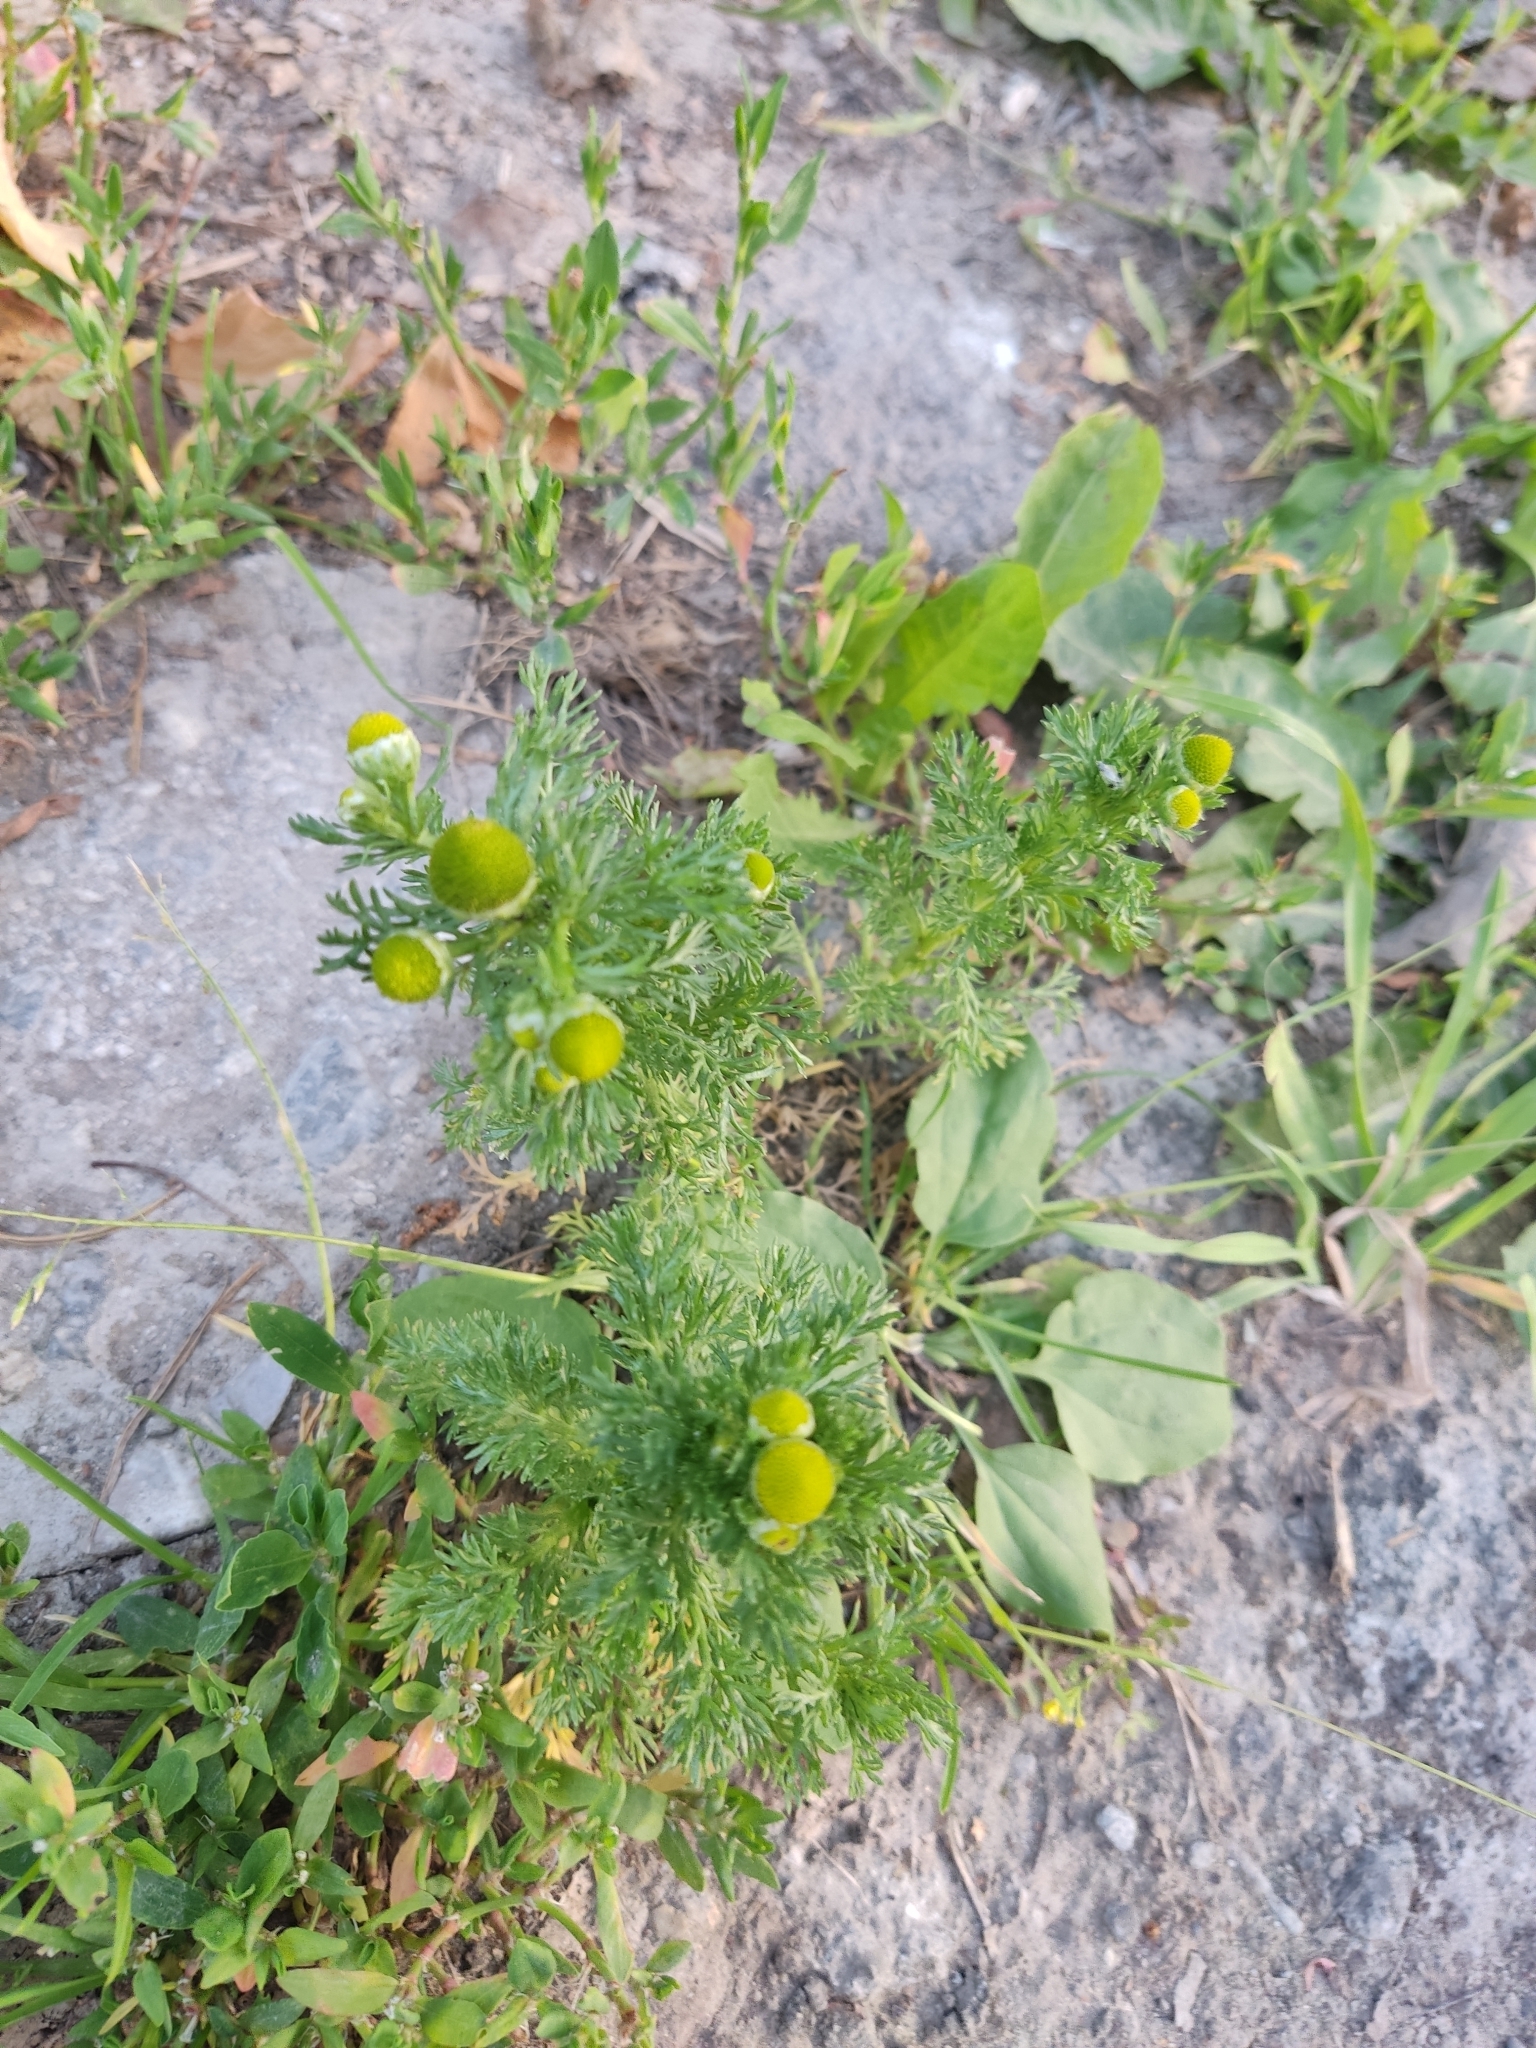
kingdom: Plantae
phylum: Tracheophyta
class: Magnoliopsida
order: Asterales
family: Asteraceae
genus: Matricaria
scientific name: Matricaria discoidea
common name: Disc mayweed
